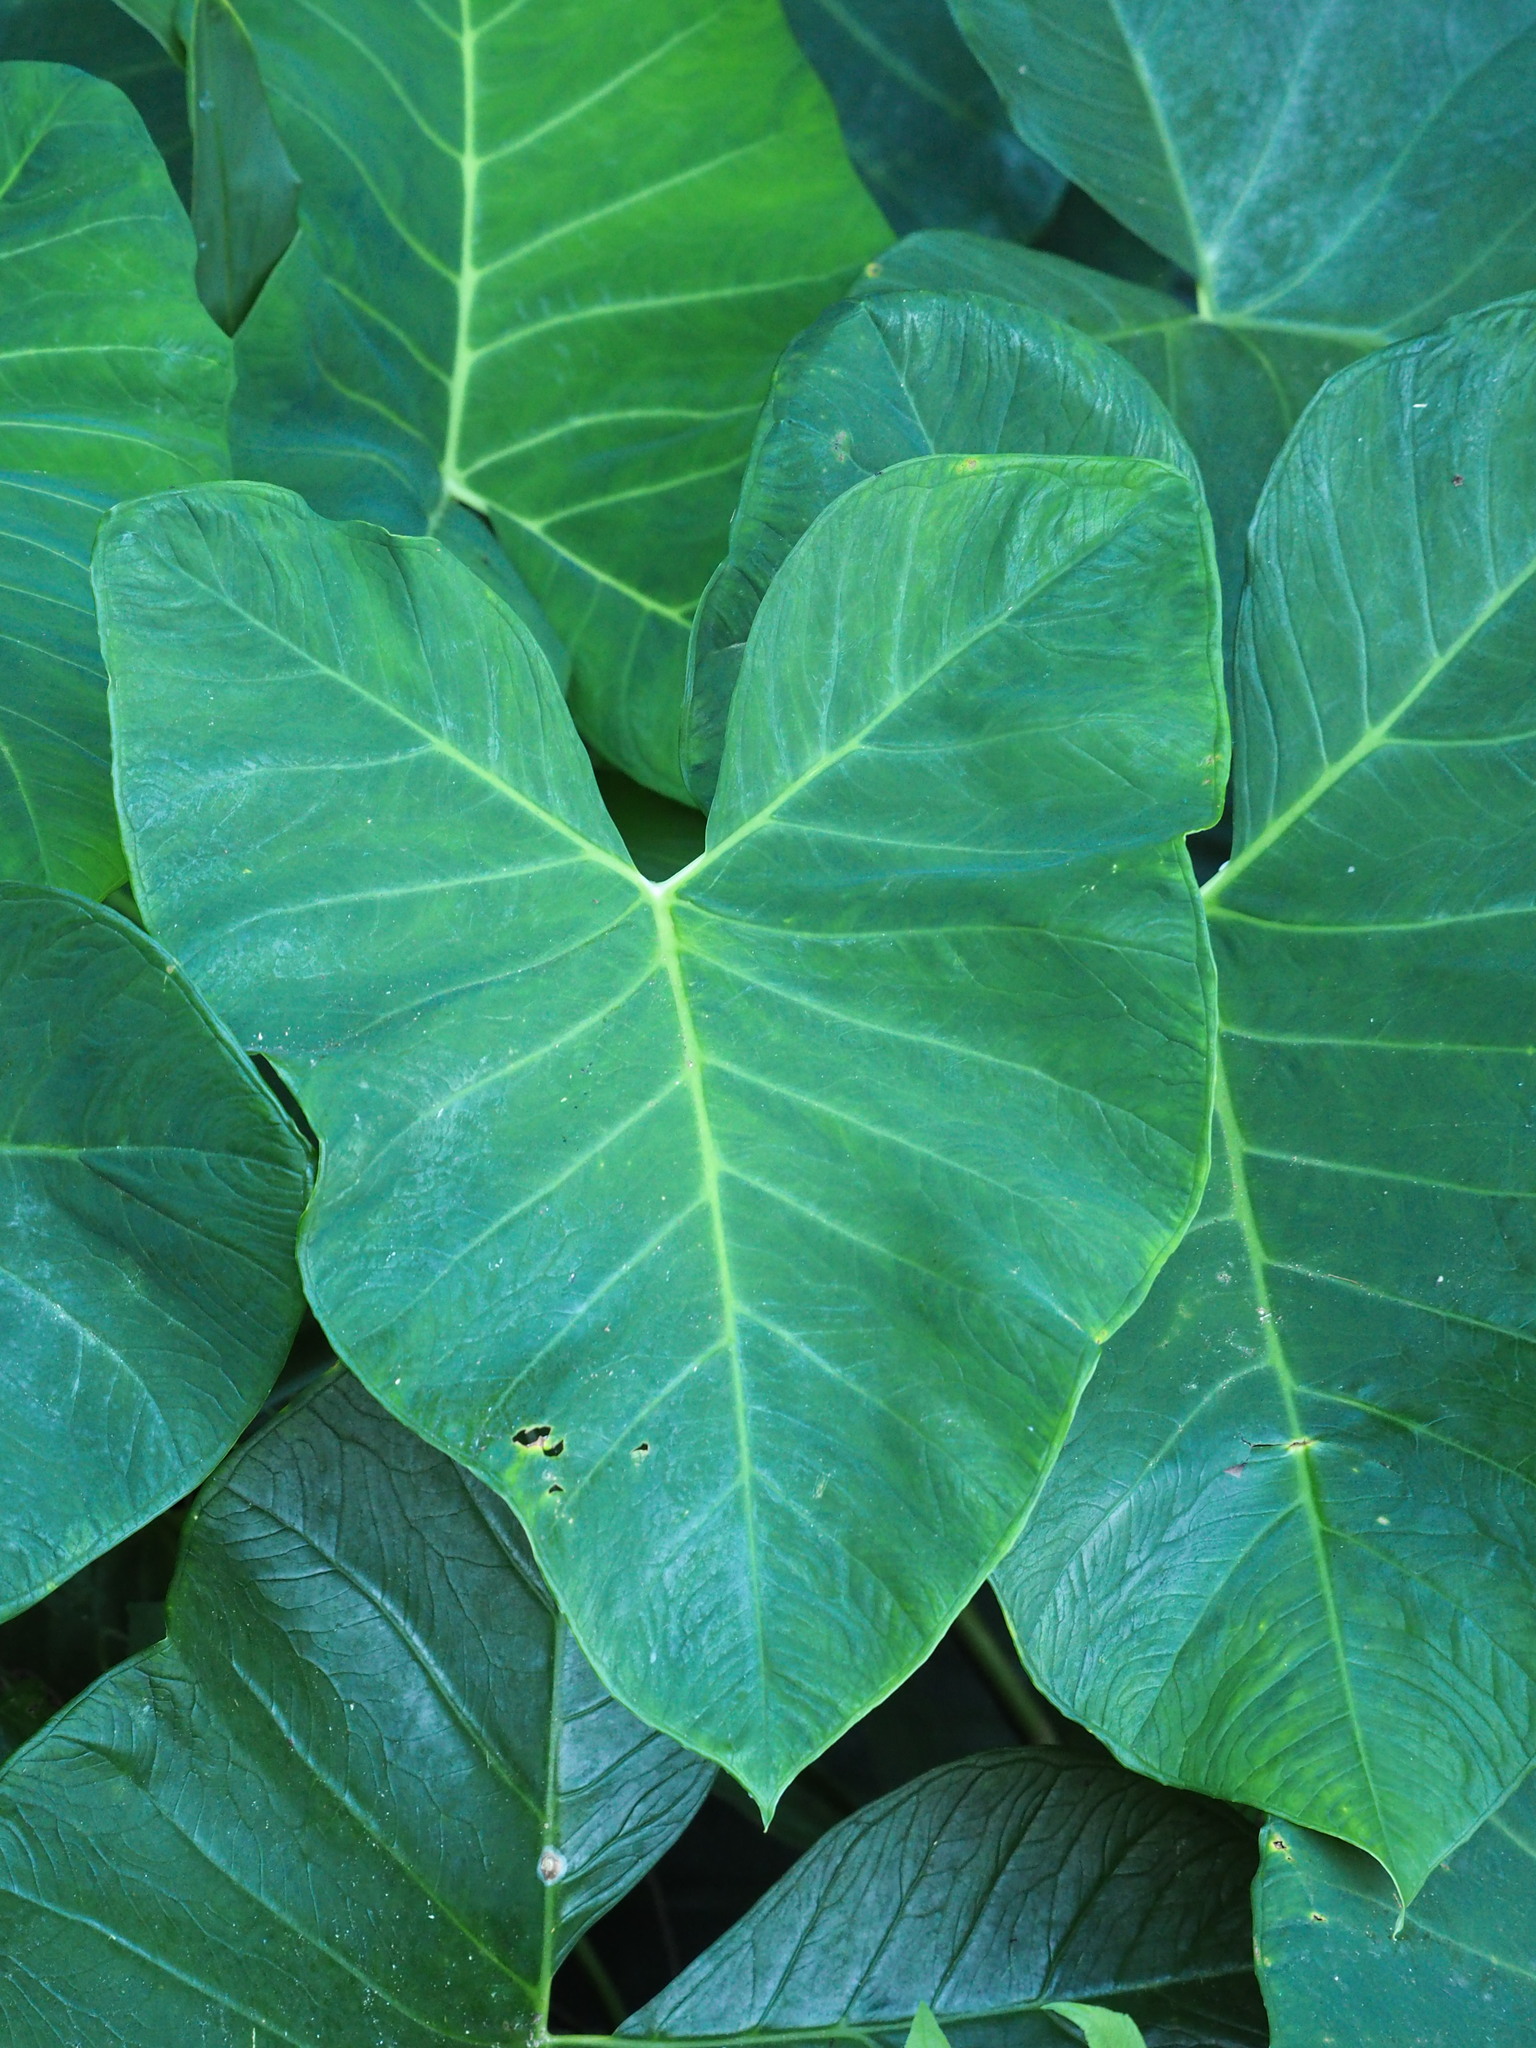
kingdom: Plantae
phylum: Tracheophyta
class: Liliopsida
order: Alismatales
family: Araceae
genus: Xanthosoma
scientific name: Xanthosoma sagittifolium
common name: Arrowleaf elephant's ear
